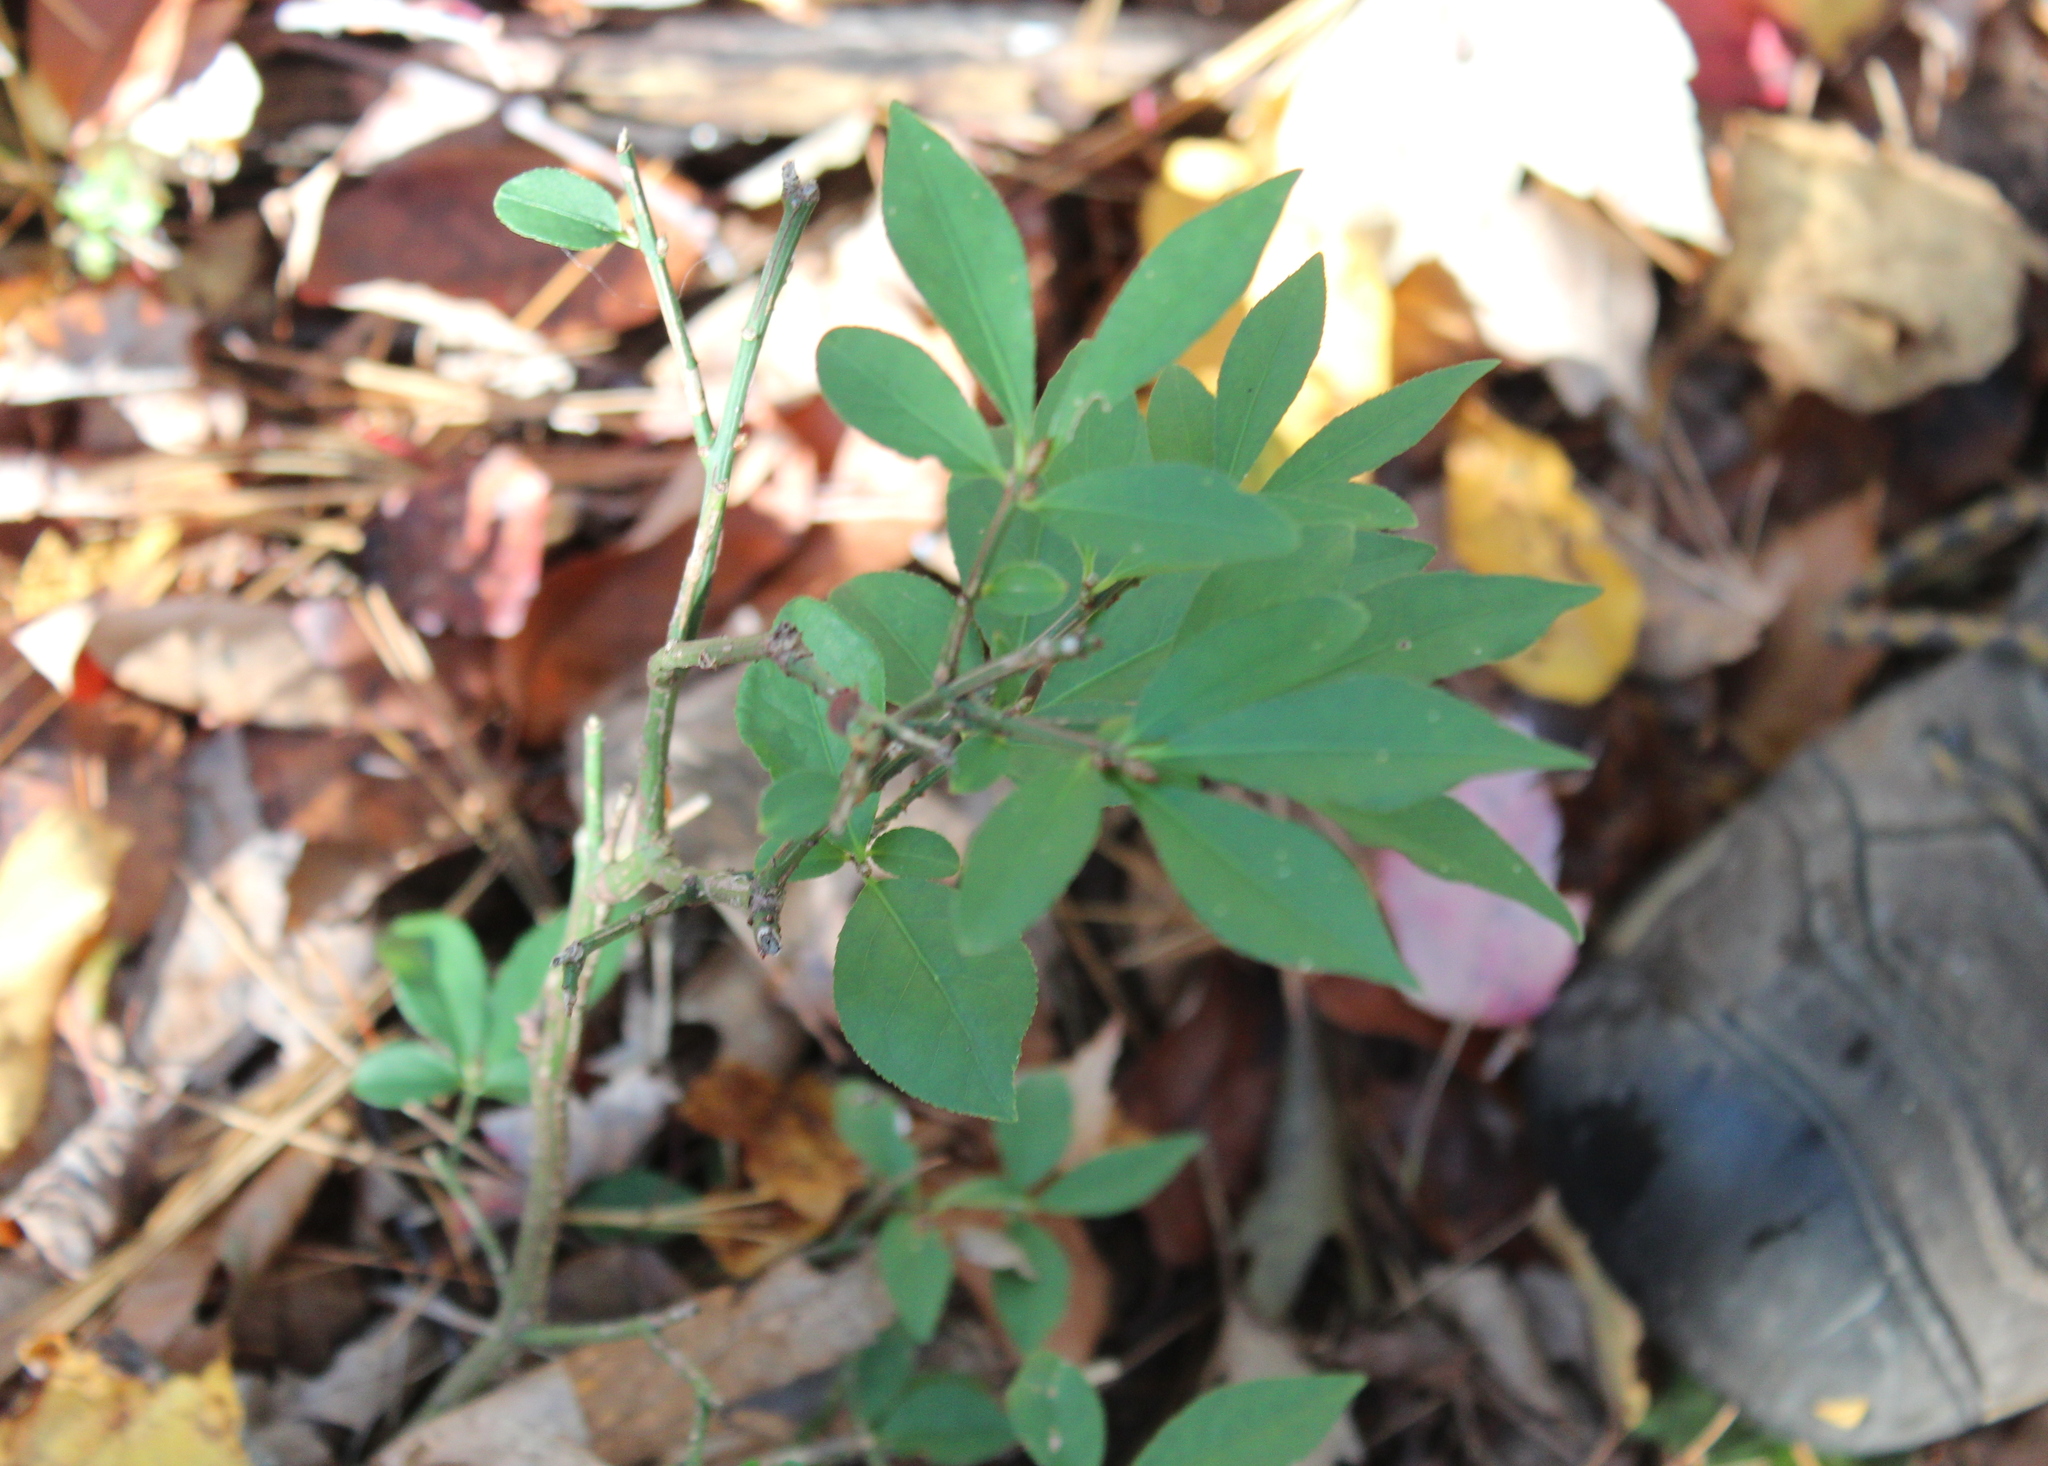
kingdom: Plantae
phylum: Tracheophyta
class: Magnoliopsida
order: Celastrales
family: Celastraceae
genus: Euonymus
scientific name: Euonymus alatus
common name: Winged euonymus
